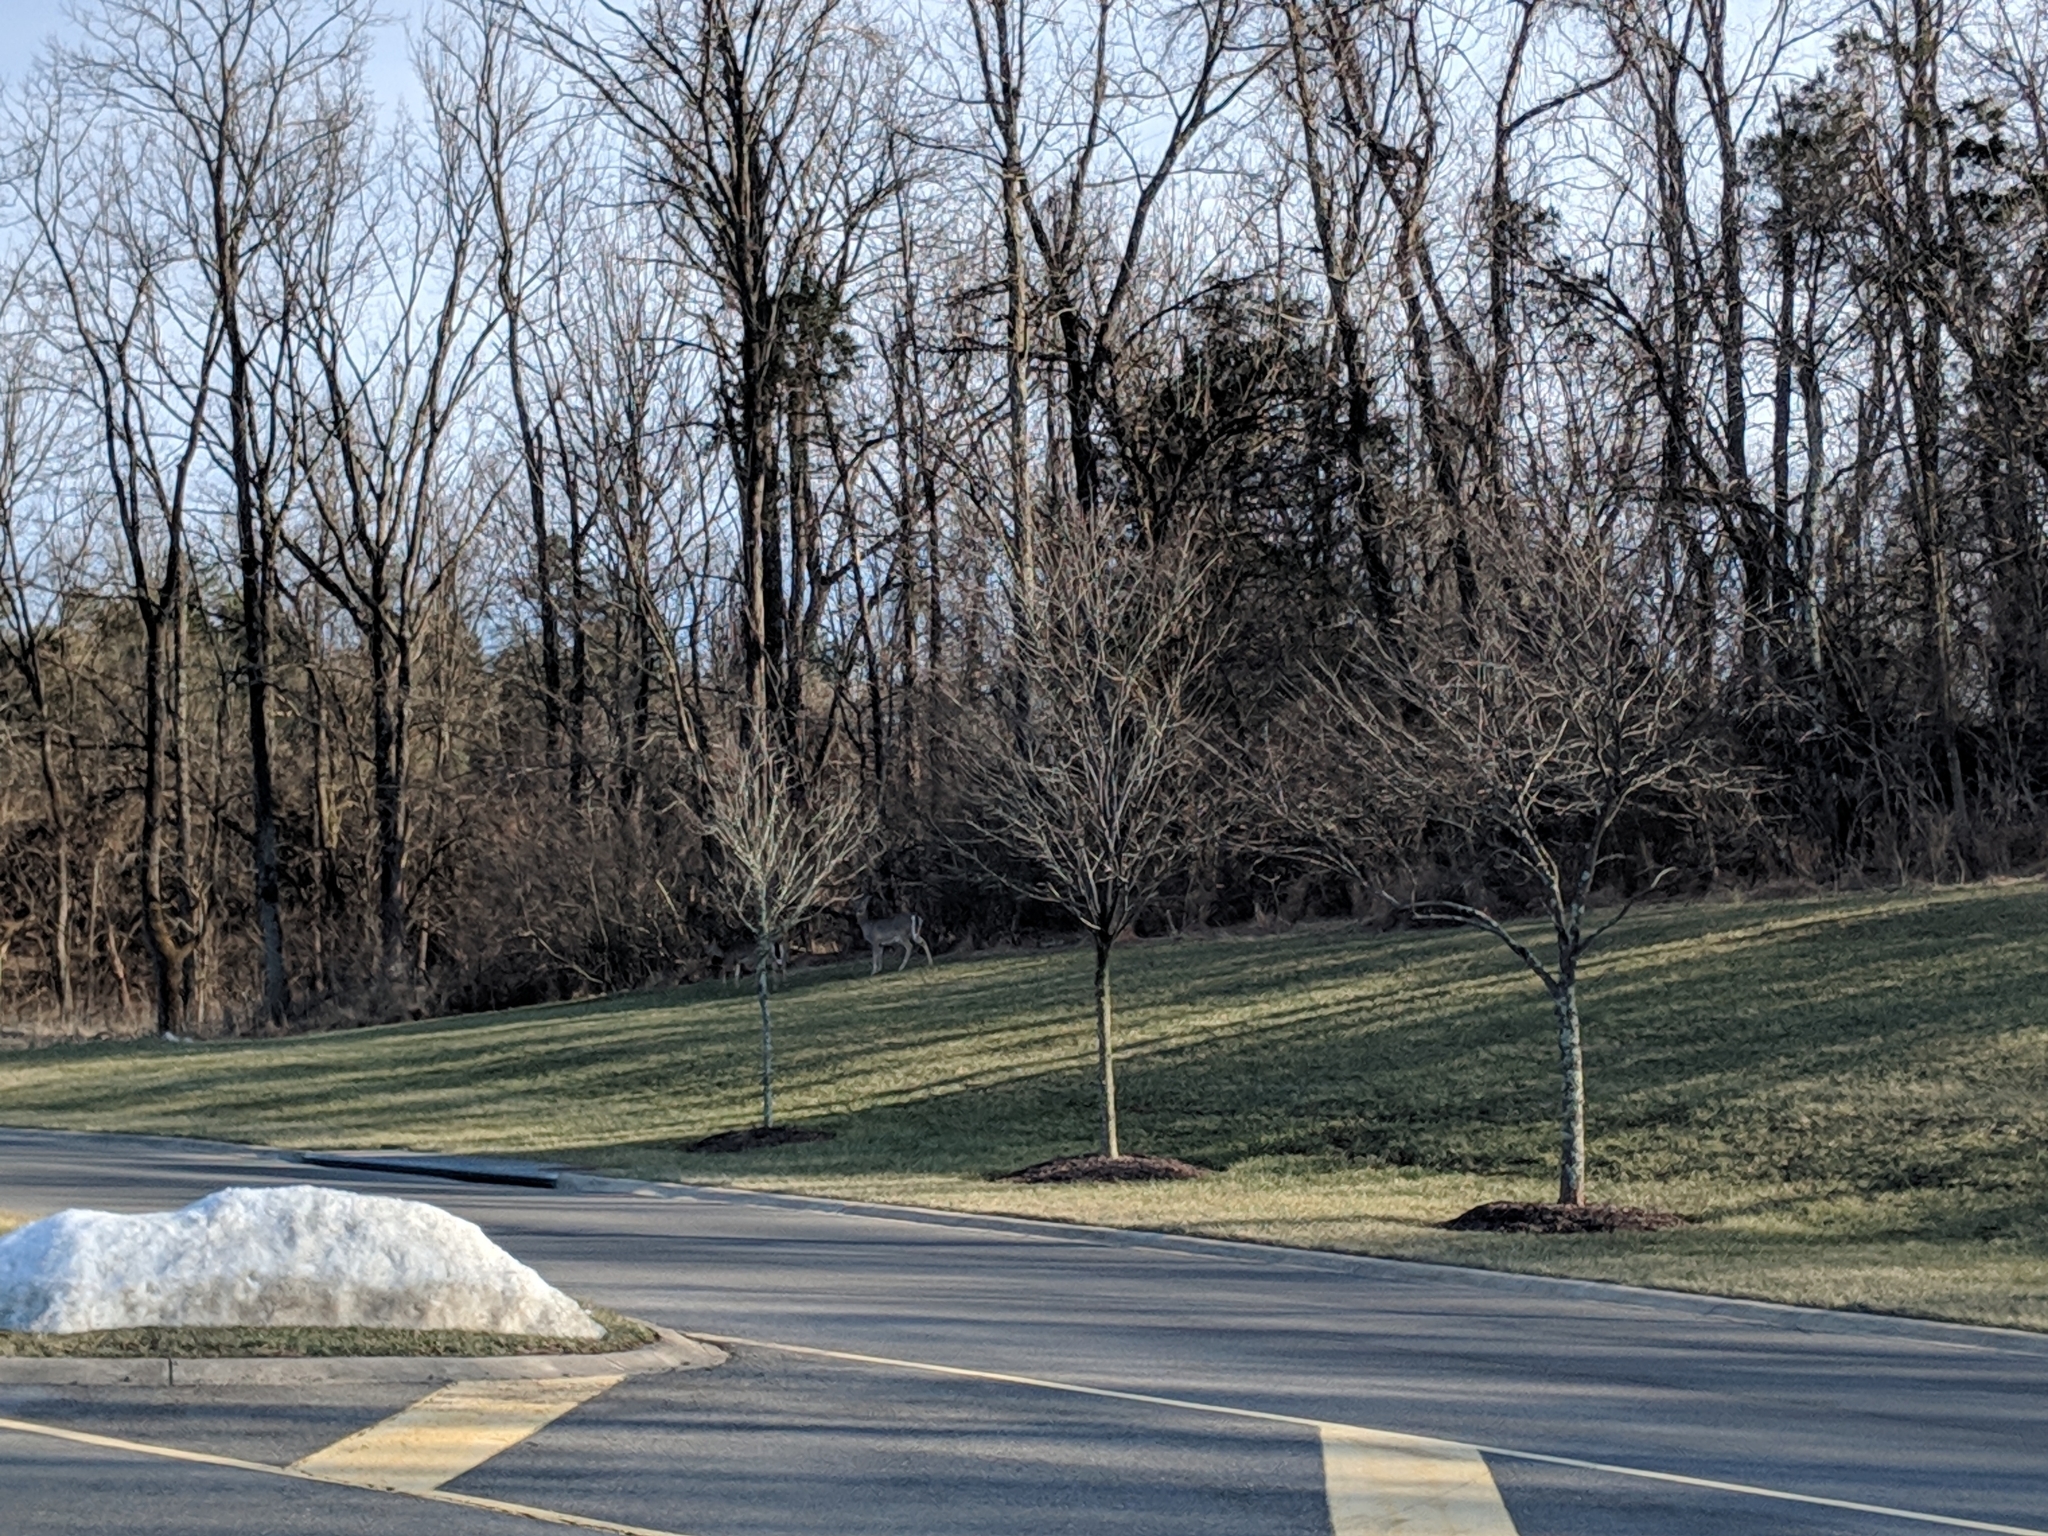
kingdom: Animalia
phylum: Chordata
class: Mammalia
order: Artiodactyla
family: Cervidae
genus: Odocoileus
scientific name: Odocoileus virginianus
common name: White-tailed deer
